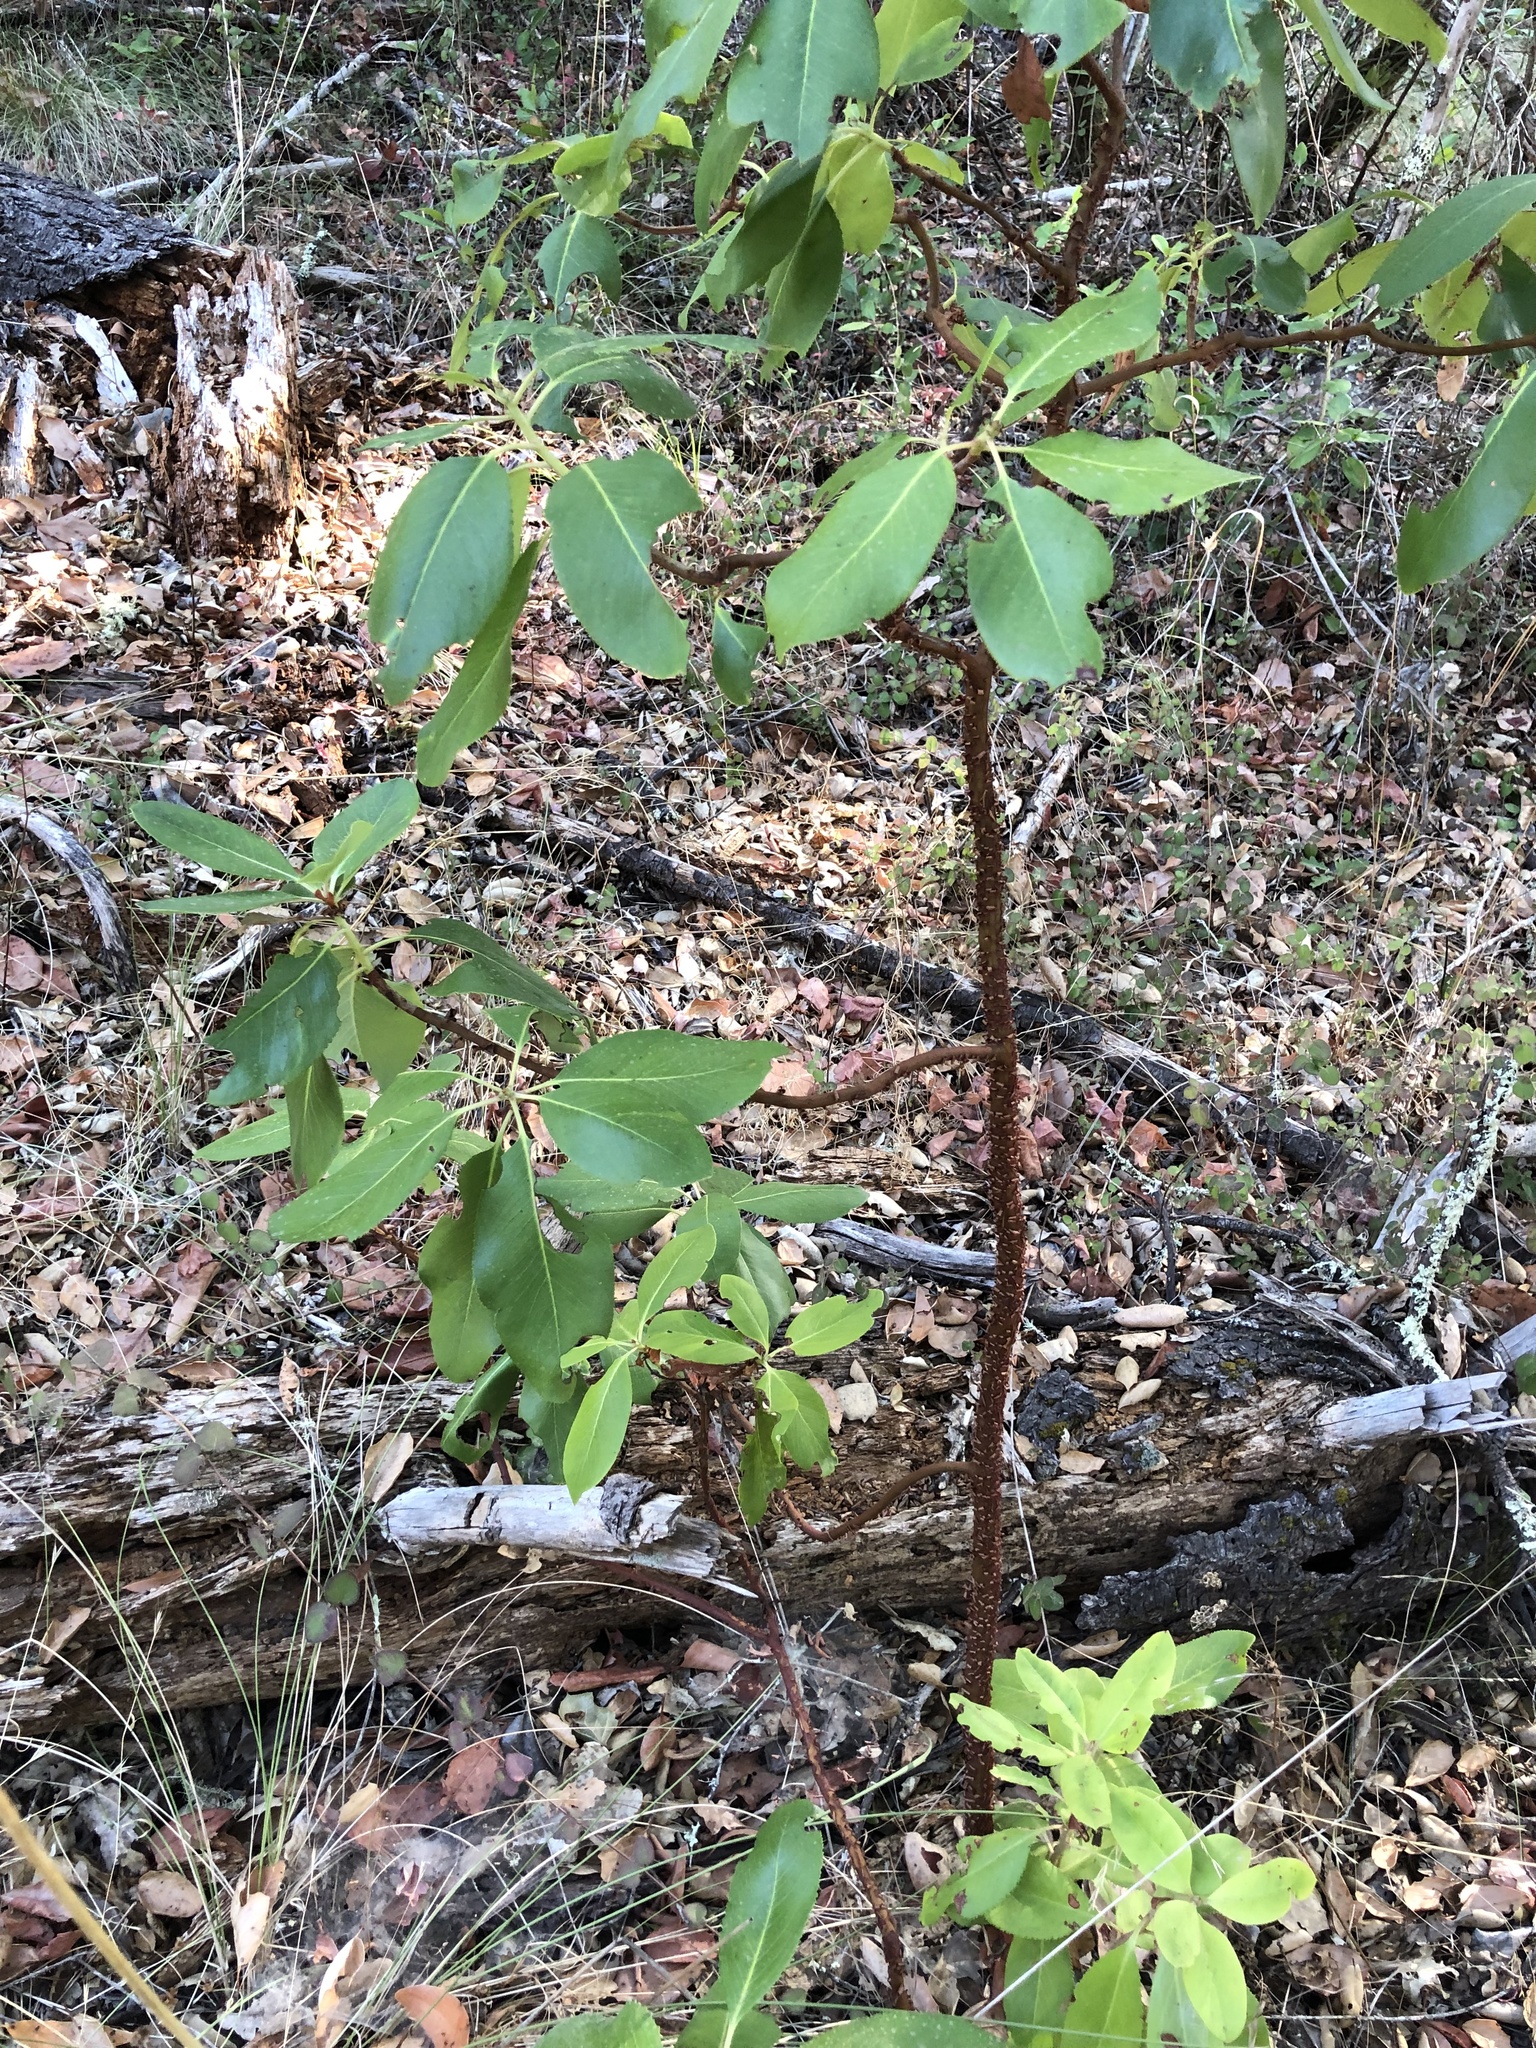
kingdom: Plantae
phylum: Tracheophyta
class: Magnoliopsida
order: Ericales
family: Ericaceae
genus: Arbutus
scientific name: Arbutus menziesii
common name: Pacific madrone
